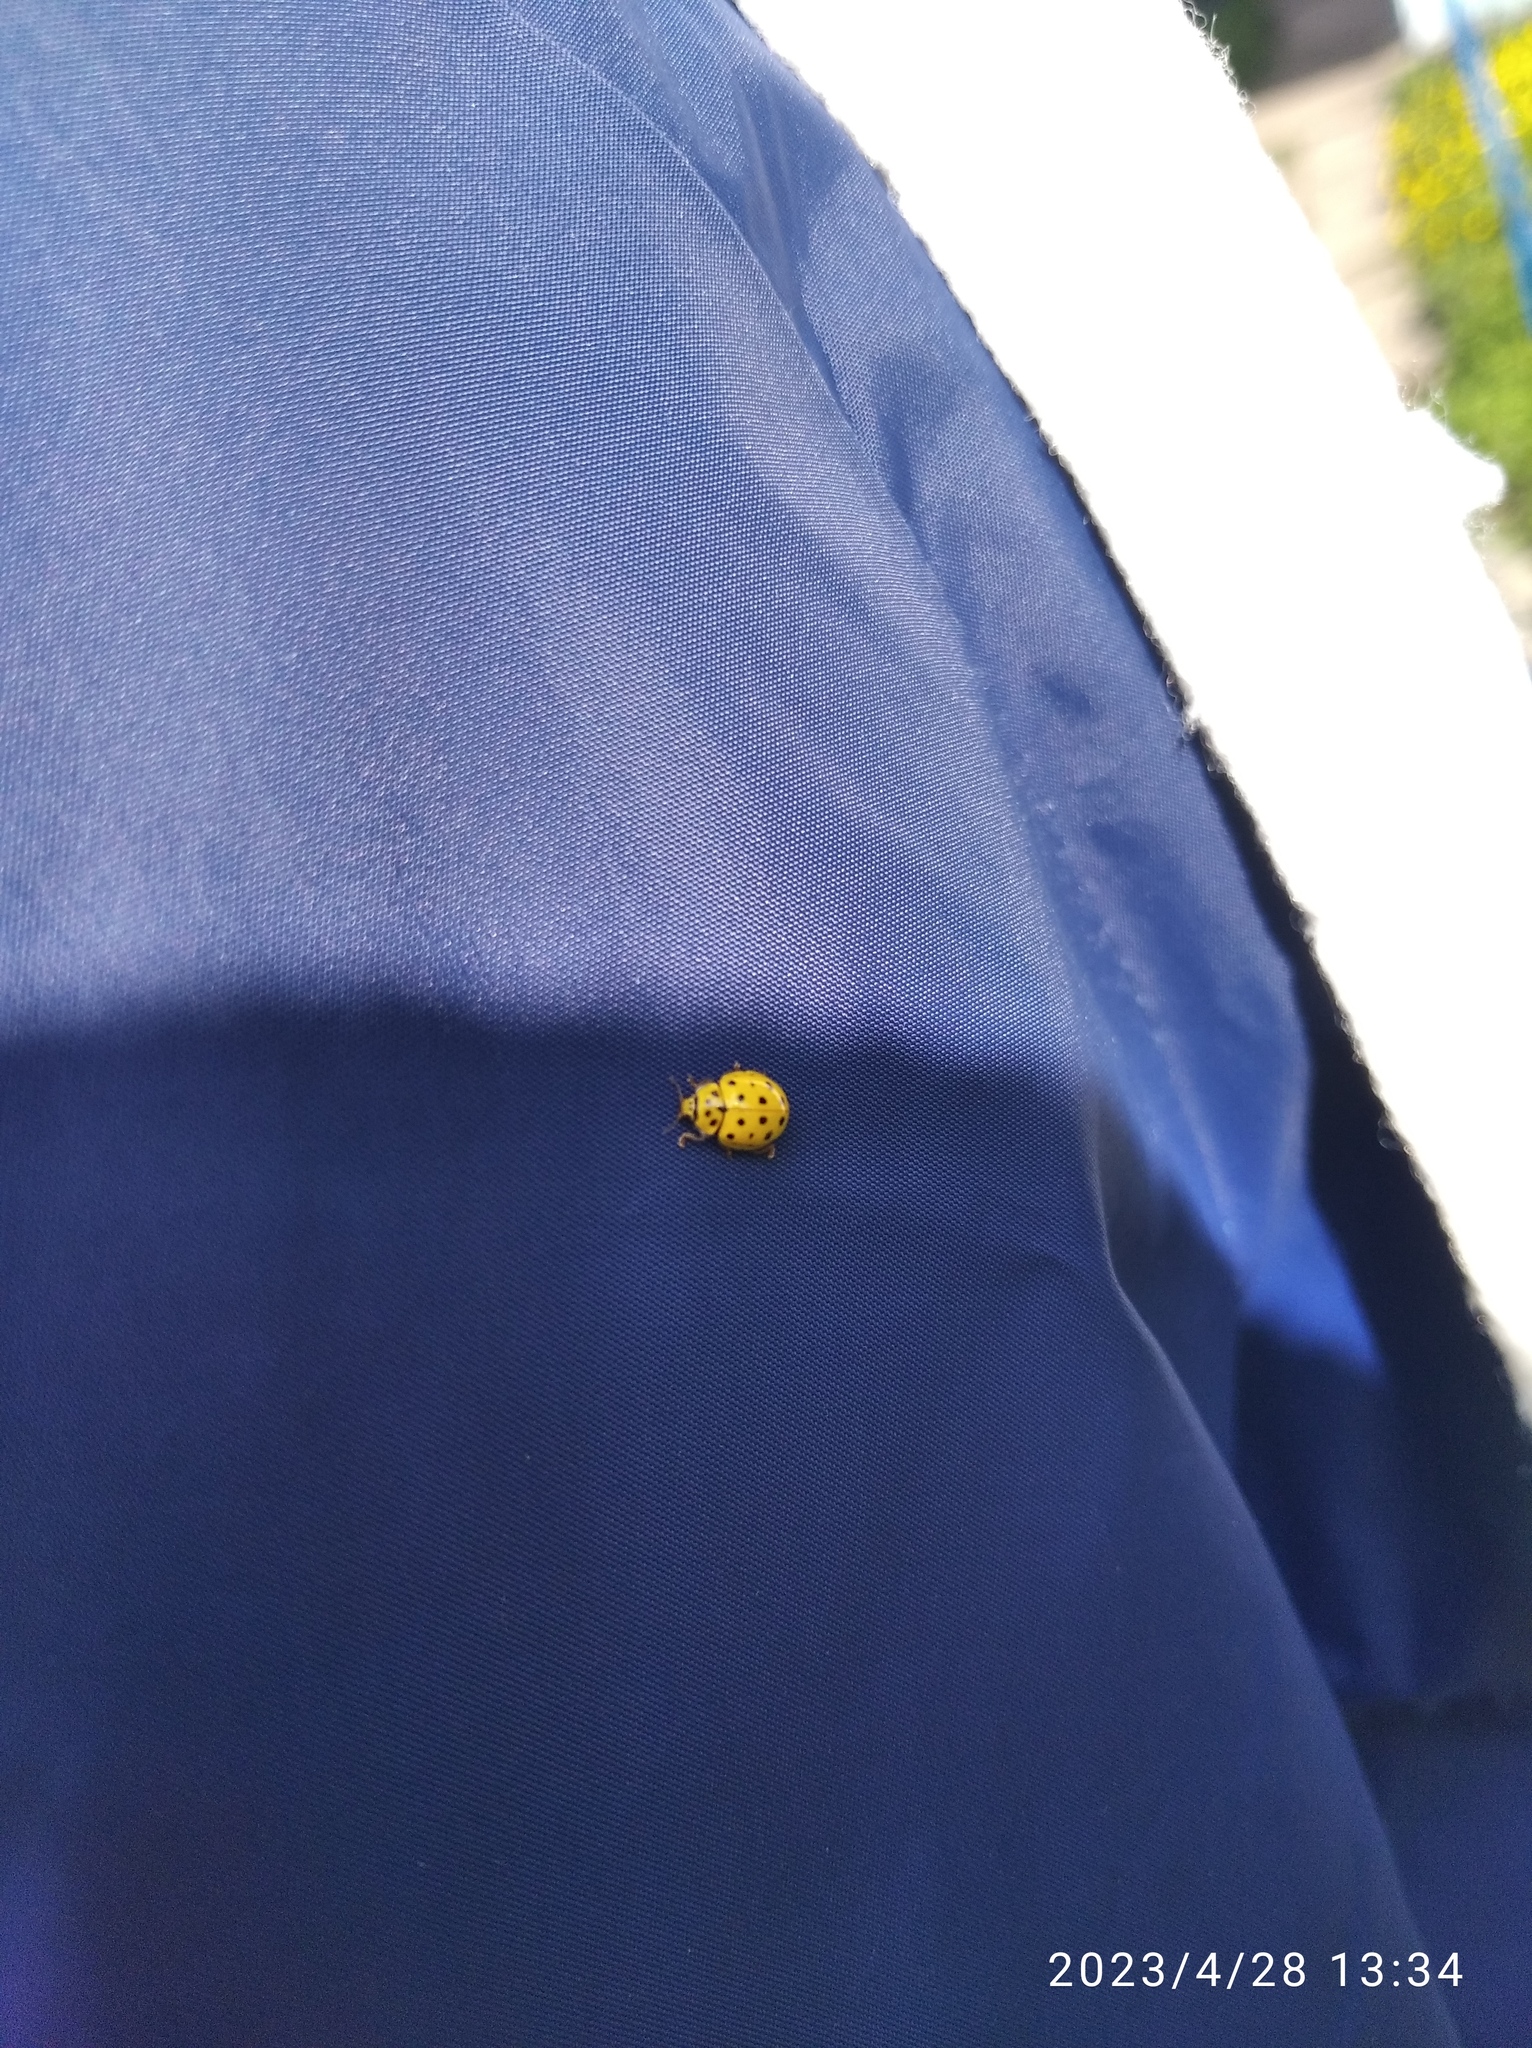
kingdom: Animalia
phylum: Arthropoda
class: Insecta
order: Coleoptera
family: Coccinellidae
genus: Psyllobora
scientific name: Psyllobora vigintiduopunctata
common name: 22-spot ladybird
